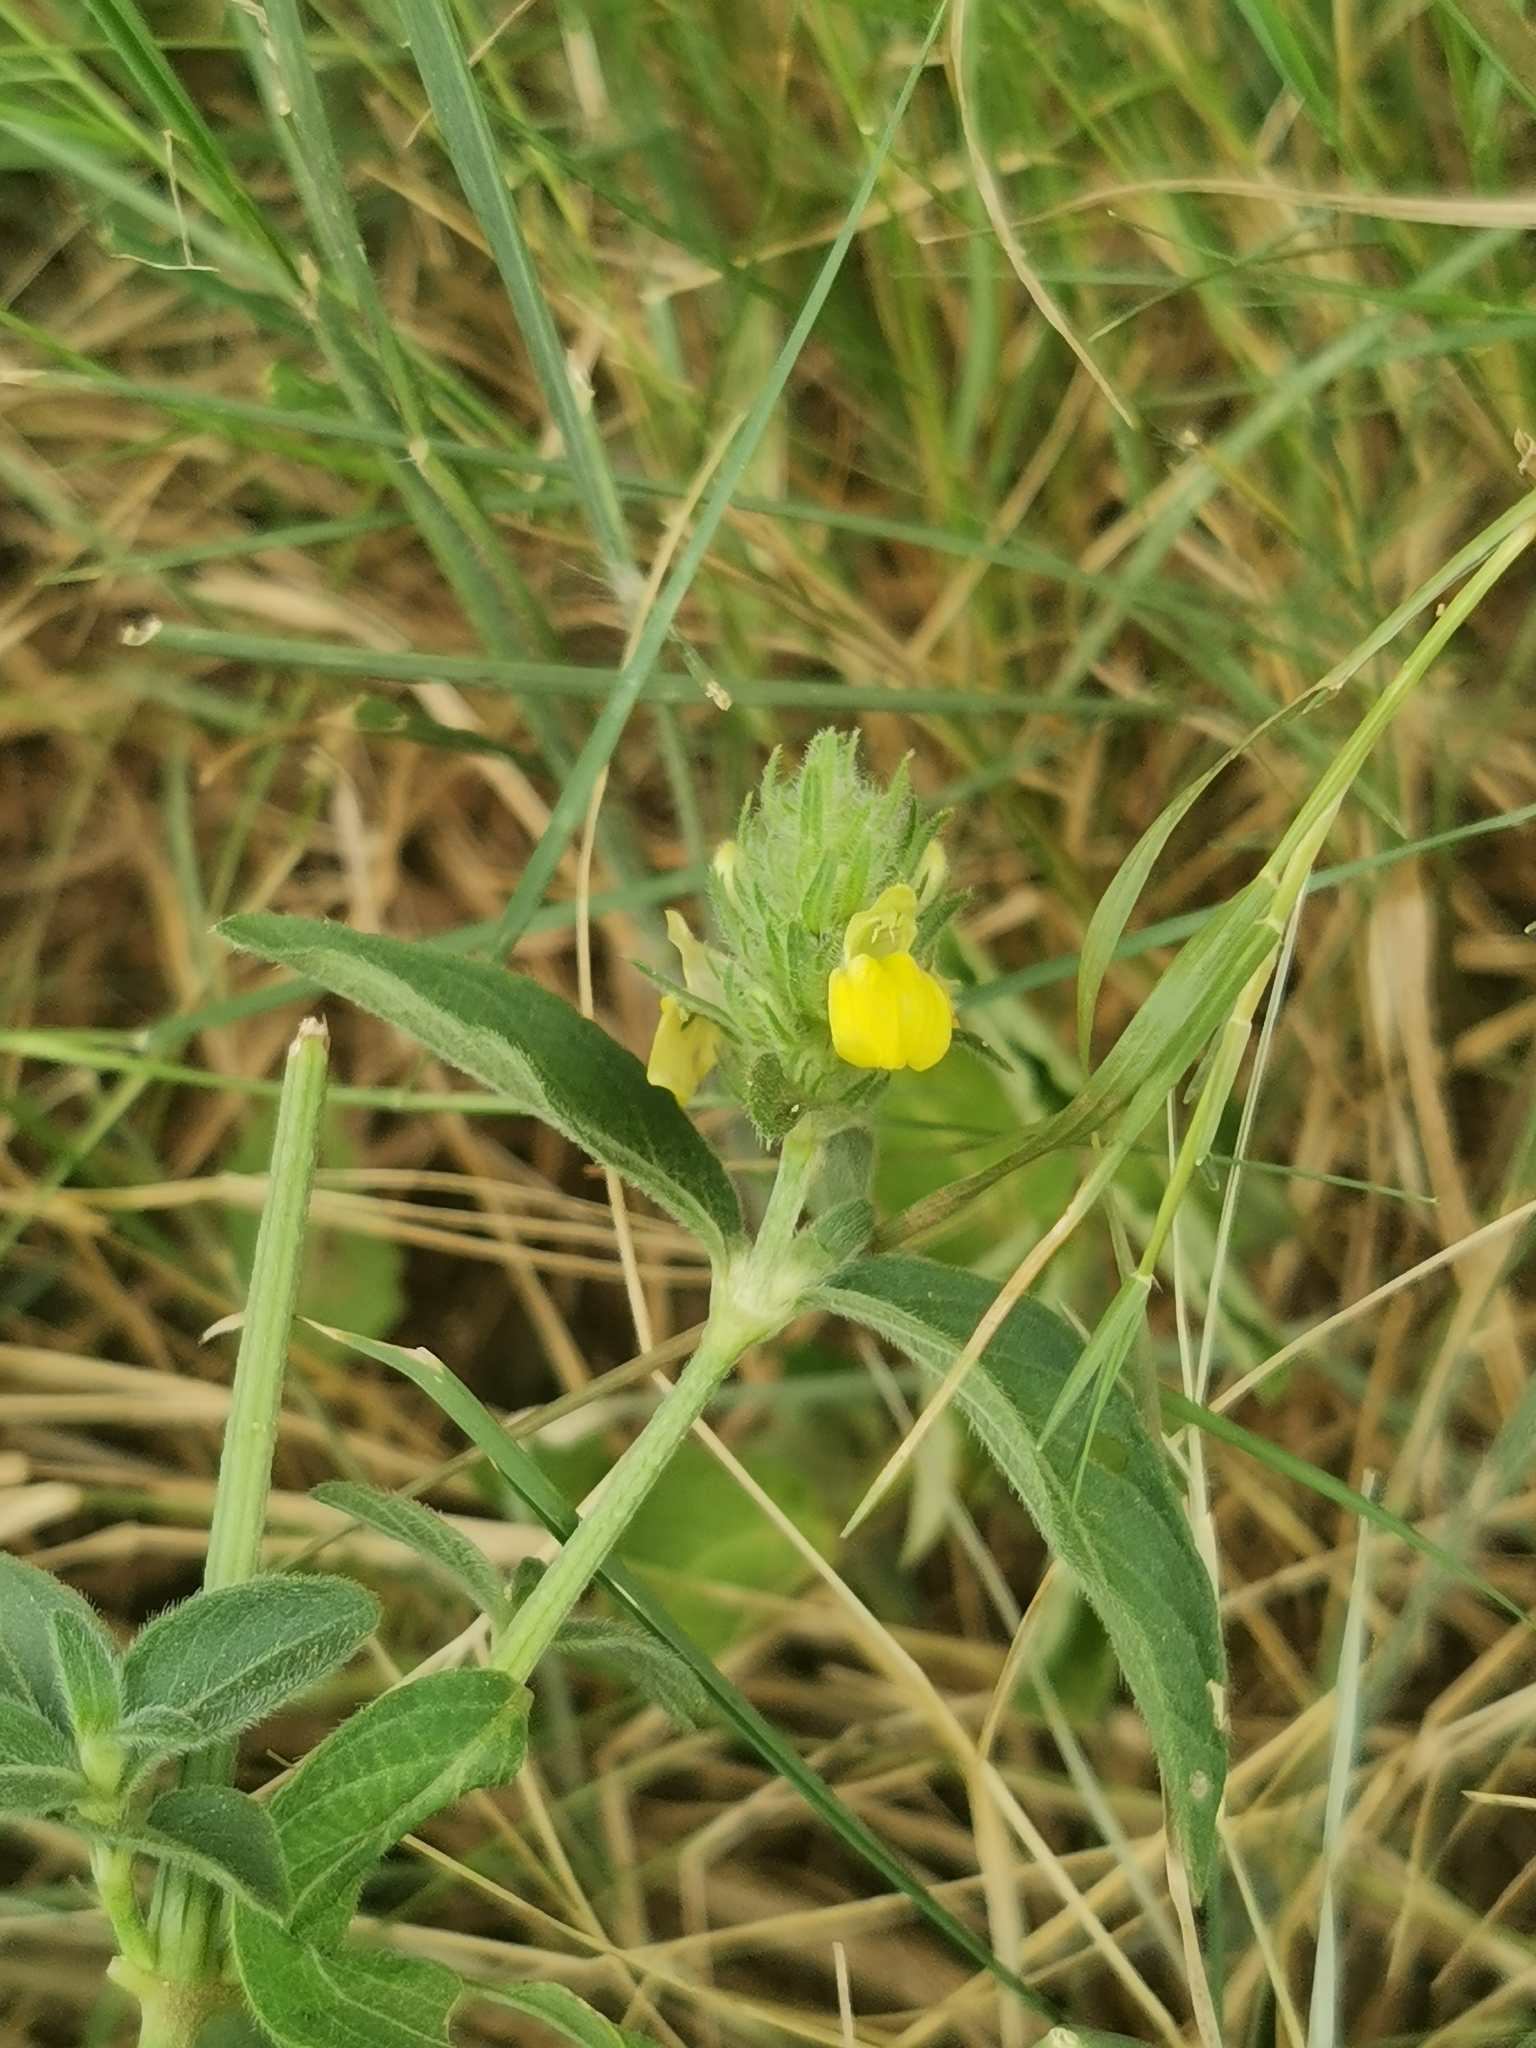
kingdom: Plantae
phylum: Tracheophyta
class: Magnoliopsida
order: Lamiales
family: Acanthaceae
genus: Justicia
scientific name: Justicia flava
